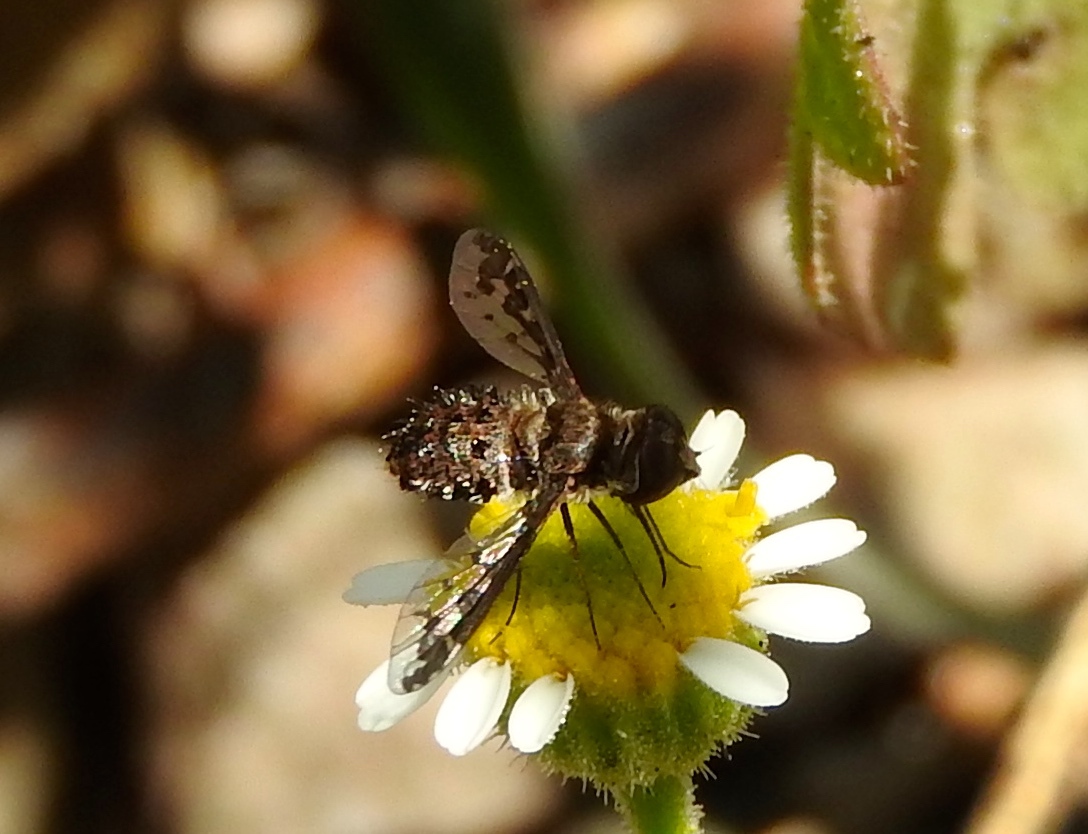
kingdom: Animalia
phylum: Arthropoda
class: Insecta
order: Diptera
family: Bombyliidae
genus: Lepidanthrax
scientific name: Lepidanthrax
